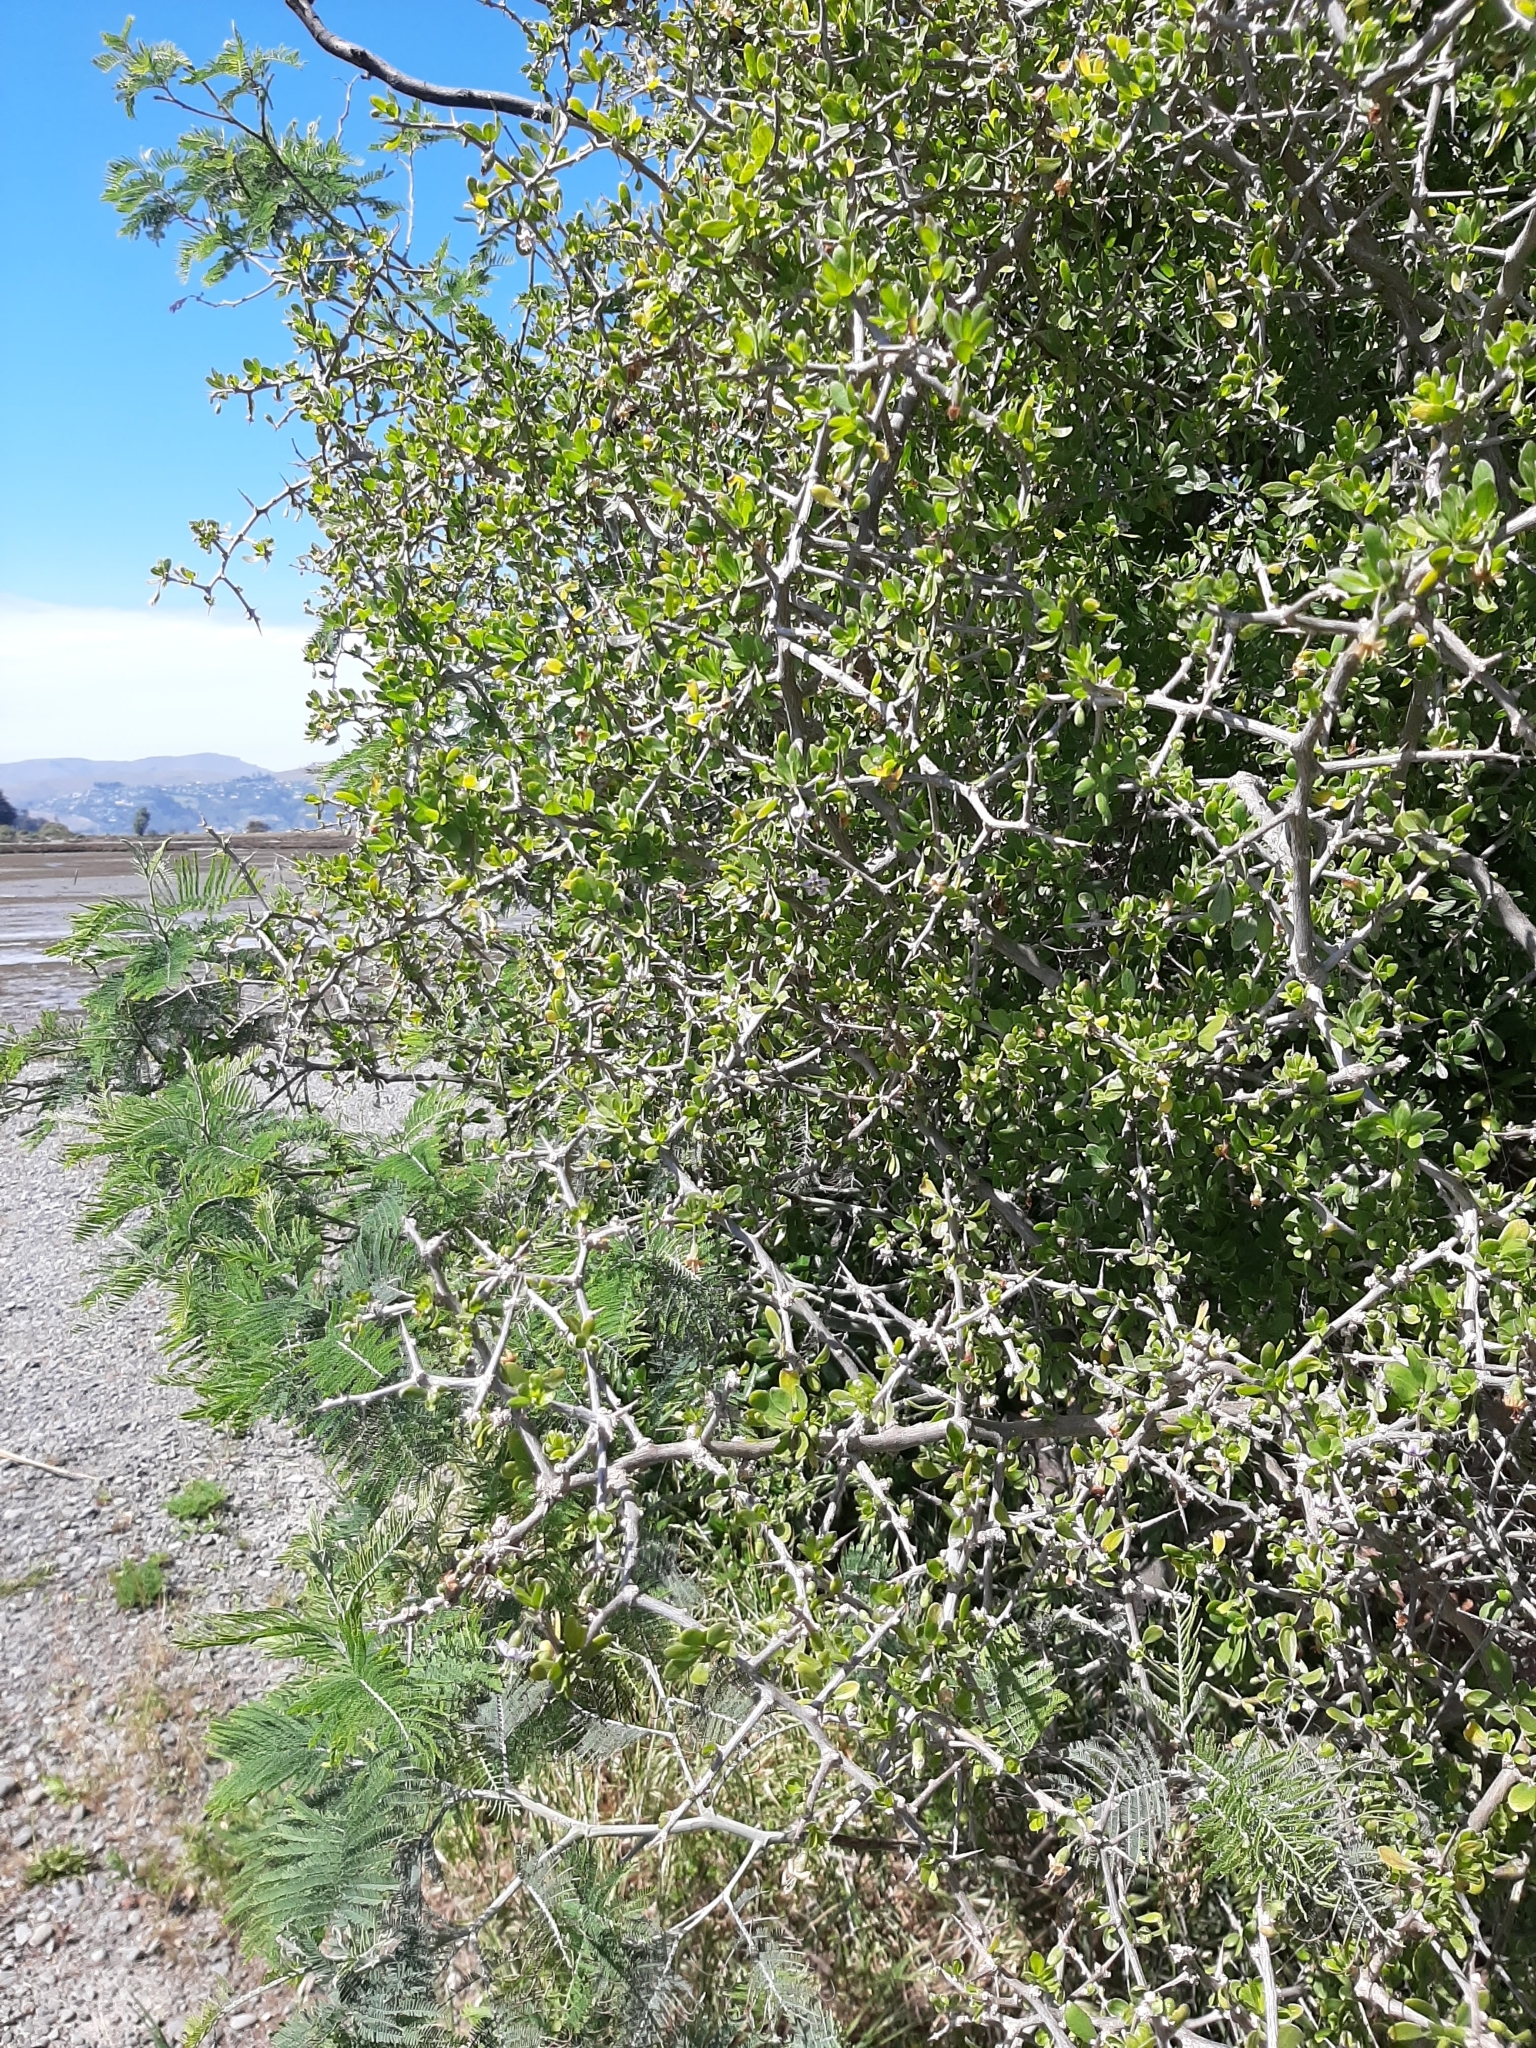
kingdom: Plantae
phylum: Tracheophyta
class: Magnoliopsida
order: Solanales
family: Solanaceae
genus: Lycium
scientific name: Lycium ferocissimum
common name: African boxthorn
